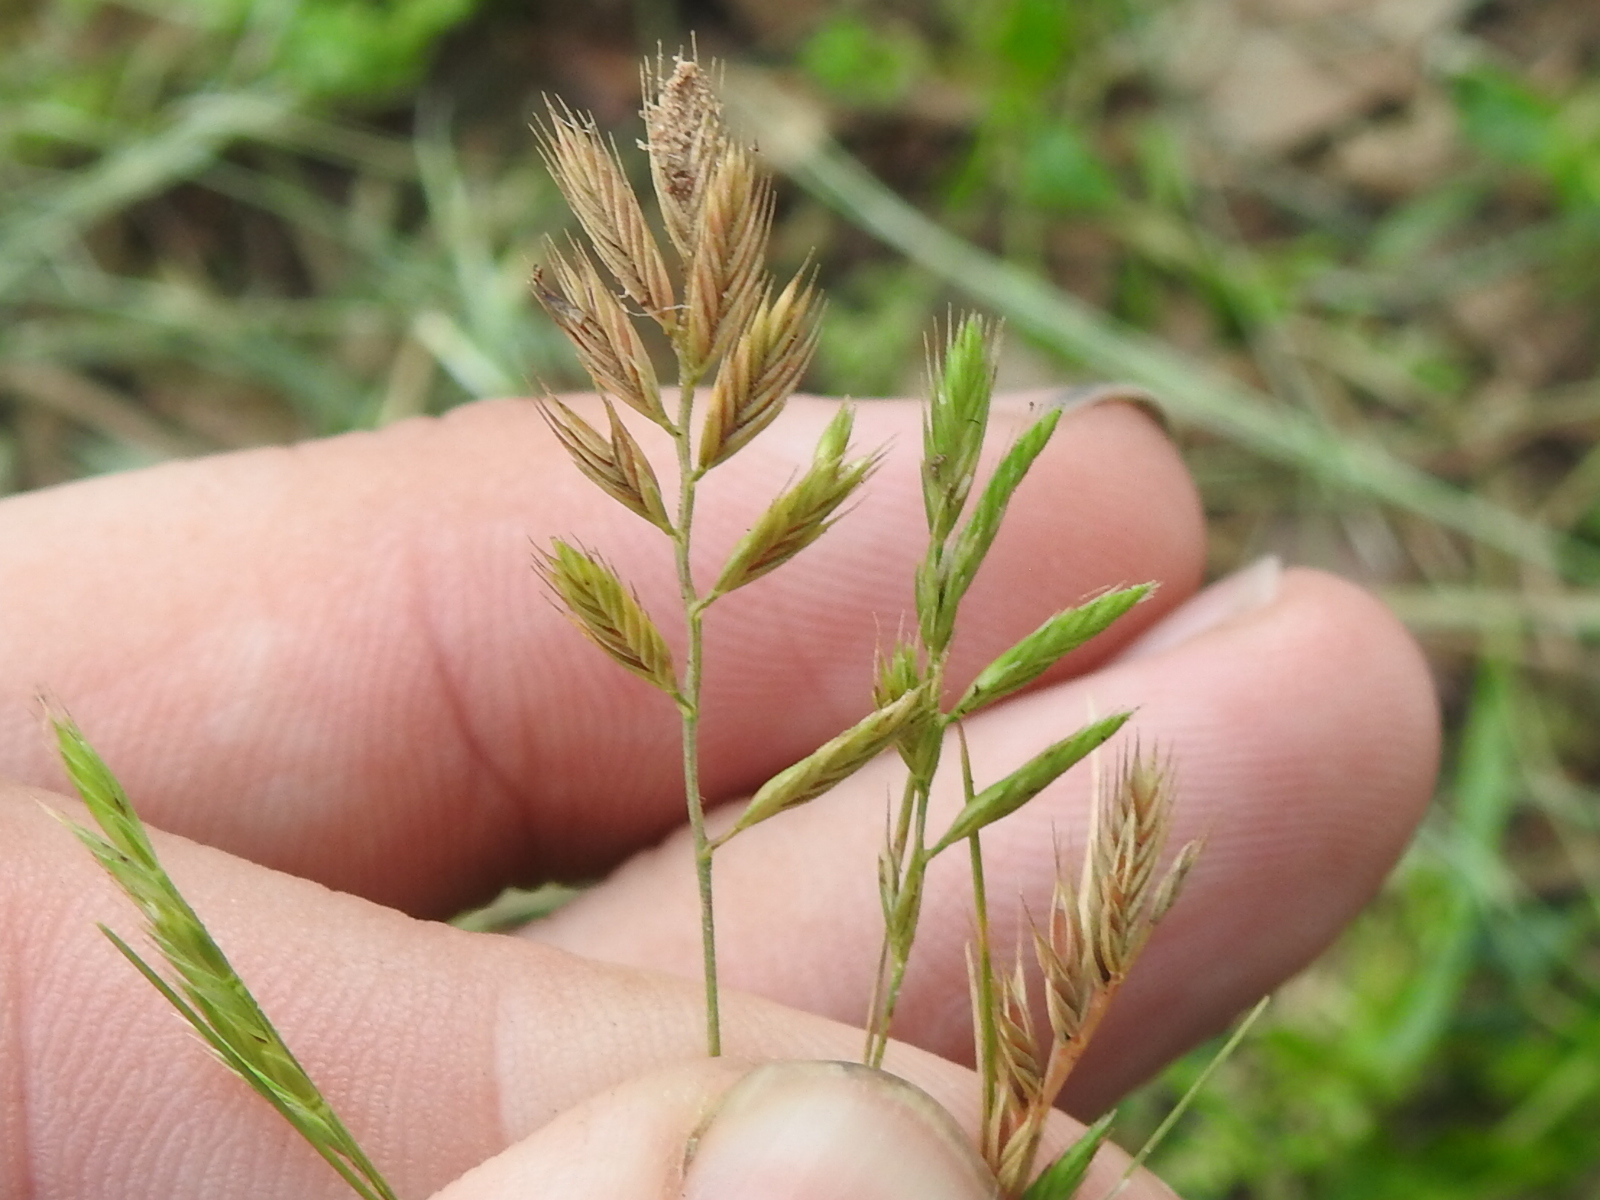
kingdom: Plantae
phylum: Tracheophyta
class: Liliopsida
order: Poales
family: Poaceae
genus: Festuca
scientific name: Festuca octoflora
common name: Sixweeks grass
